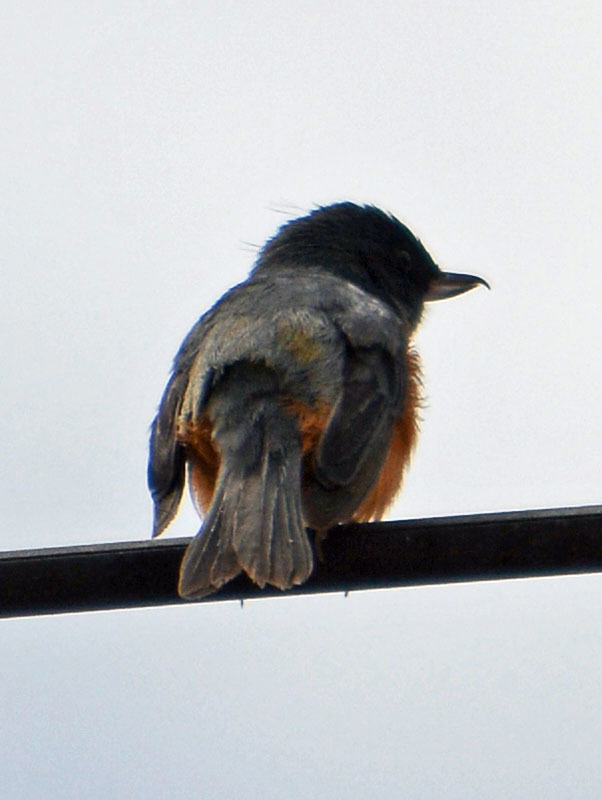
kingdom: Animalia
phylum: Chordata
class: Aves
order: Passeriformes
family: Thraupidae
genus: Diglossa
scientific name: Diglossa baritula
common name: Cinnamon-bellied flowerpiercer
